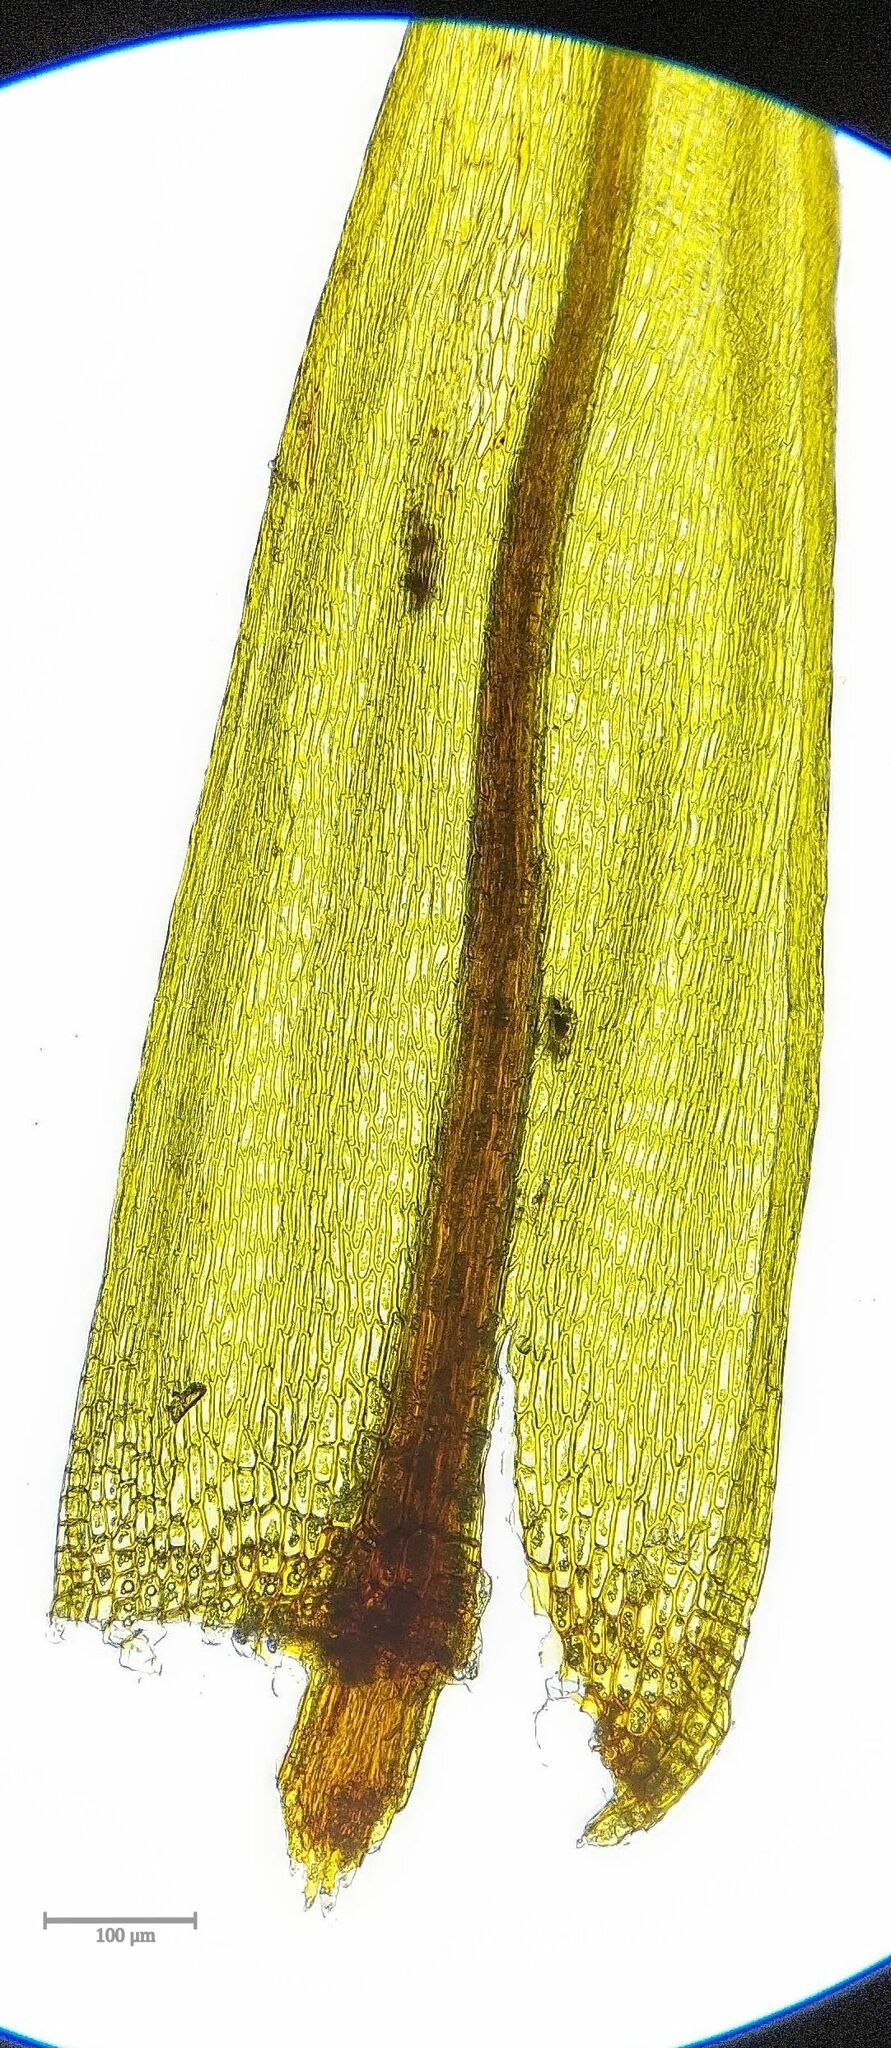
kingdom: Plantae
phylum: Bryophyta
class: Bryopsida
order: Bryales
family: Bryaceae
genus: Imbribryum
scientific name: Imbribryum alpinum
